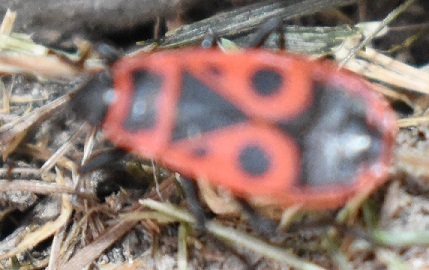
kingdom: Animalia
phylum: Arthropoda
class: Insecta
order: Hemiptera
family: Pyrrhocoridae
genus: Pyrrhocoris
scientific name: Pyrrhocoris apterus
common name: Firebug
